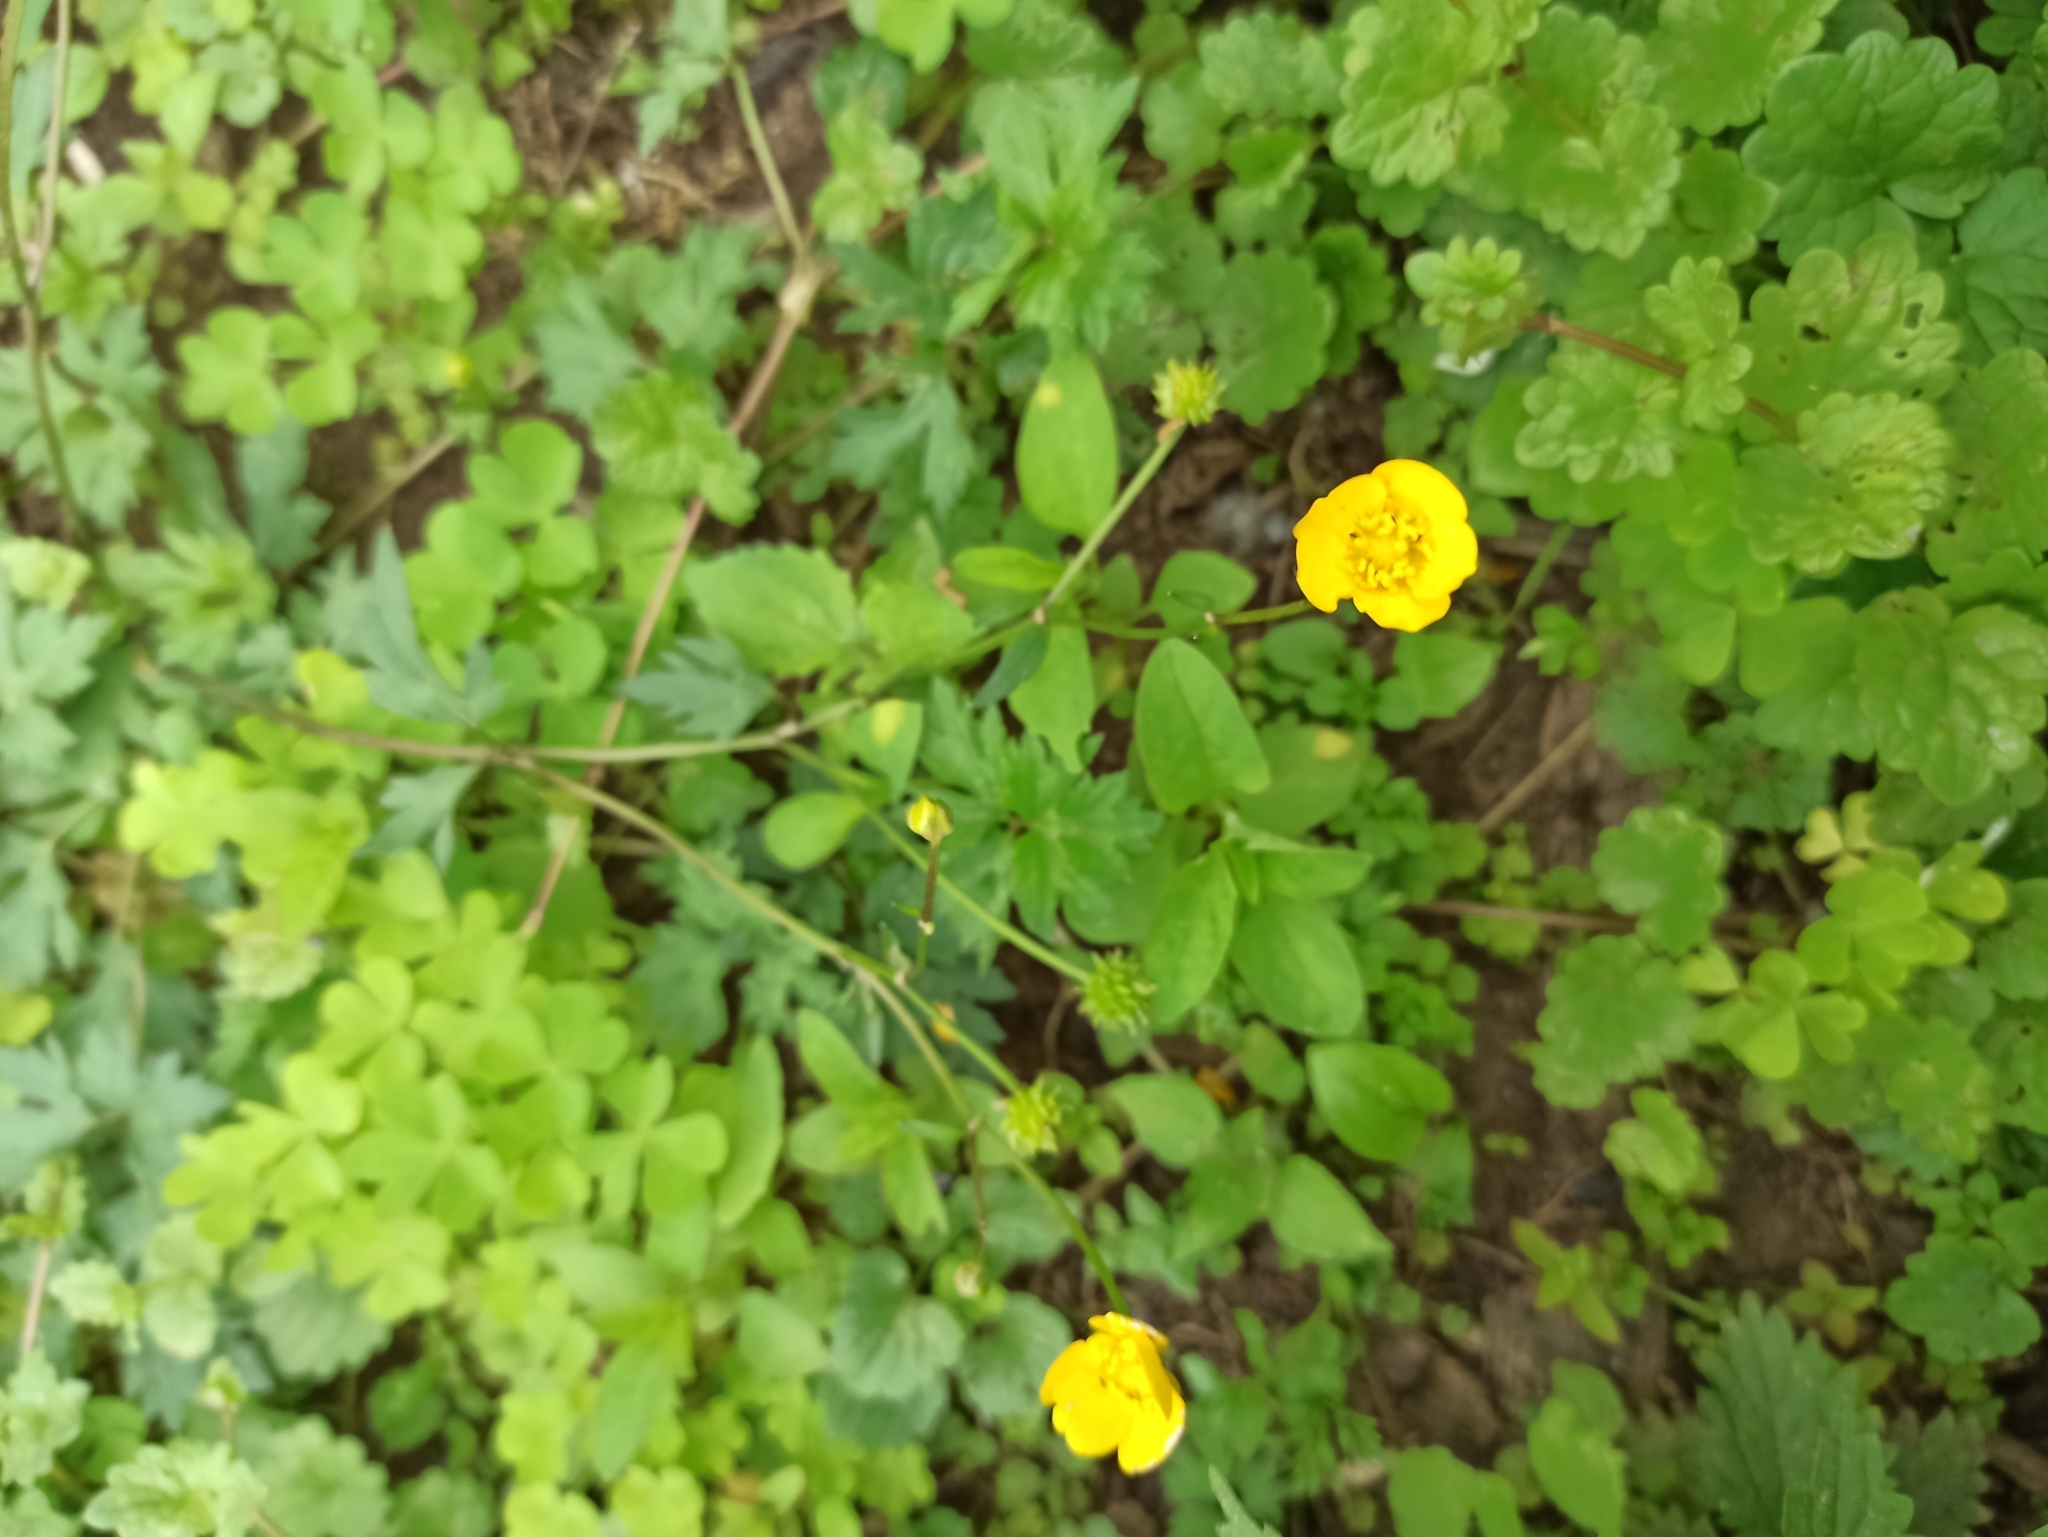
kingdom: Plantae
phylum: Tracheophyta
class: Magnoliopsida
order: Ranunculales
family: Ranunculaceae
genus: Ranunculus
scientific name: Ranunculus repens
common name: Creeping buttercup
